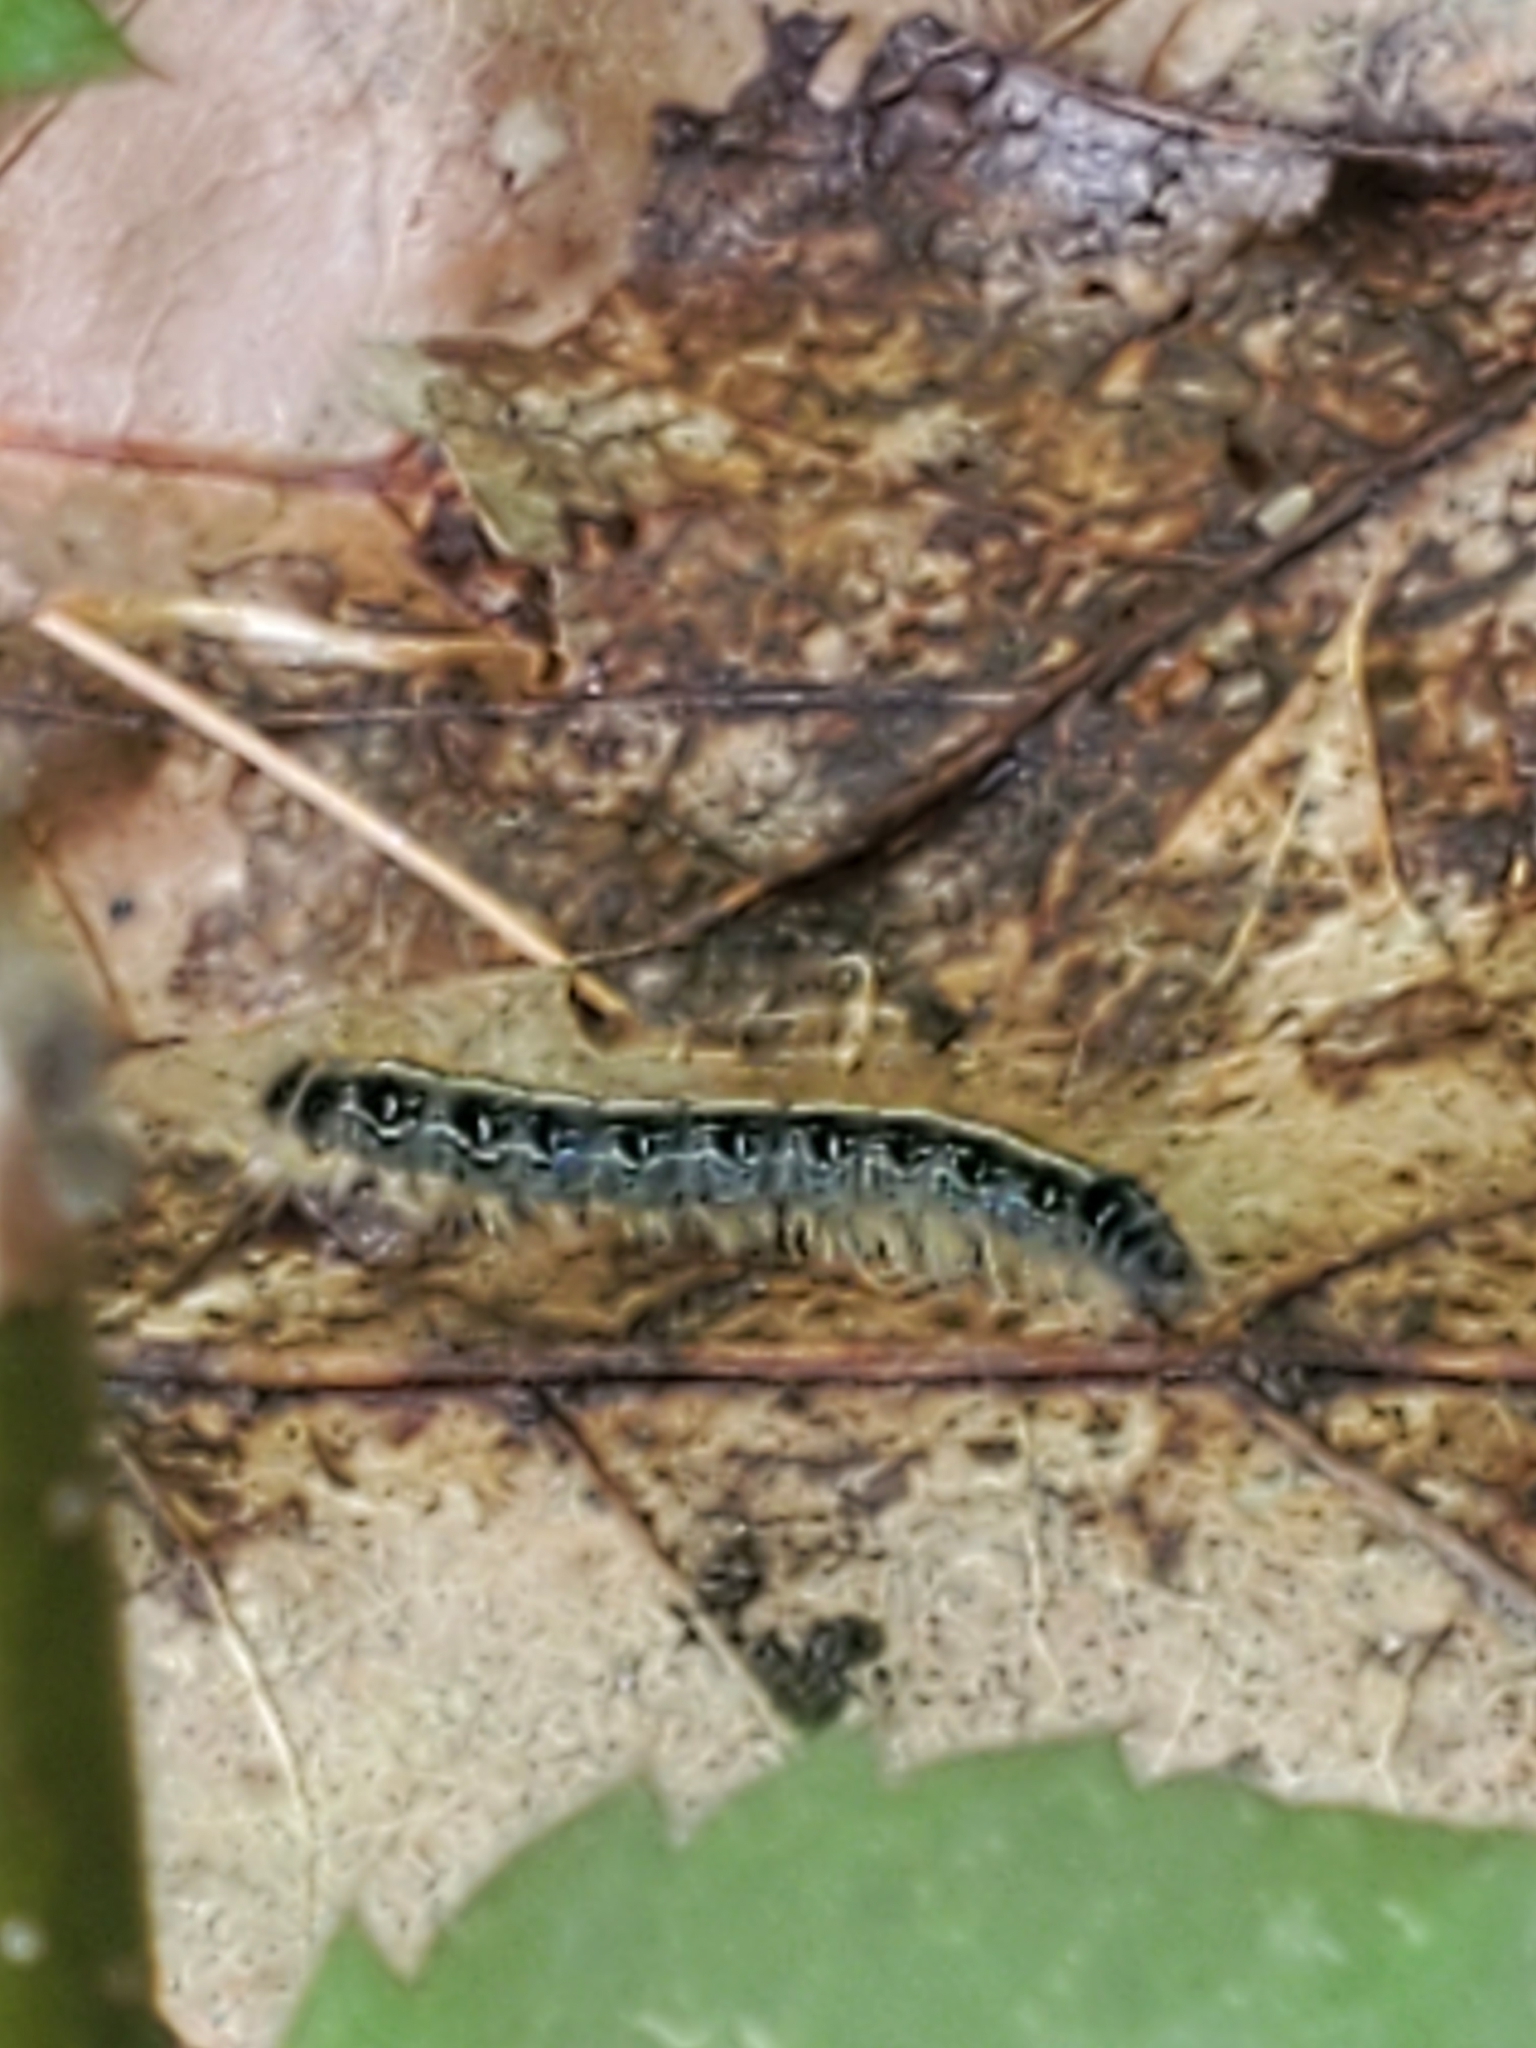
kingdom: Animalia
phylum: Arthropoda
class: Insecta
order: Lepidoptera
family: Lasiocampidae
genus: Malacosoma
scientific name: Malacosoma americana
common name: Eastern tent caterpillar moth
